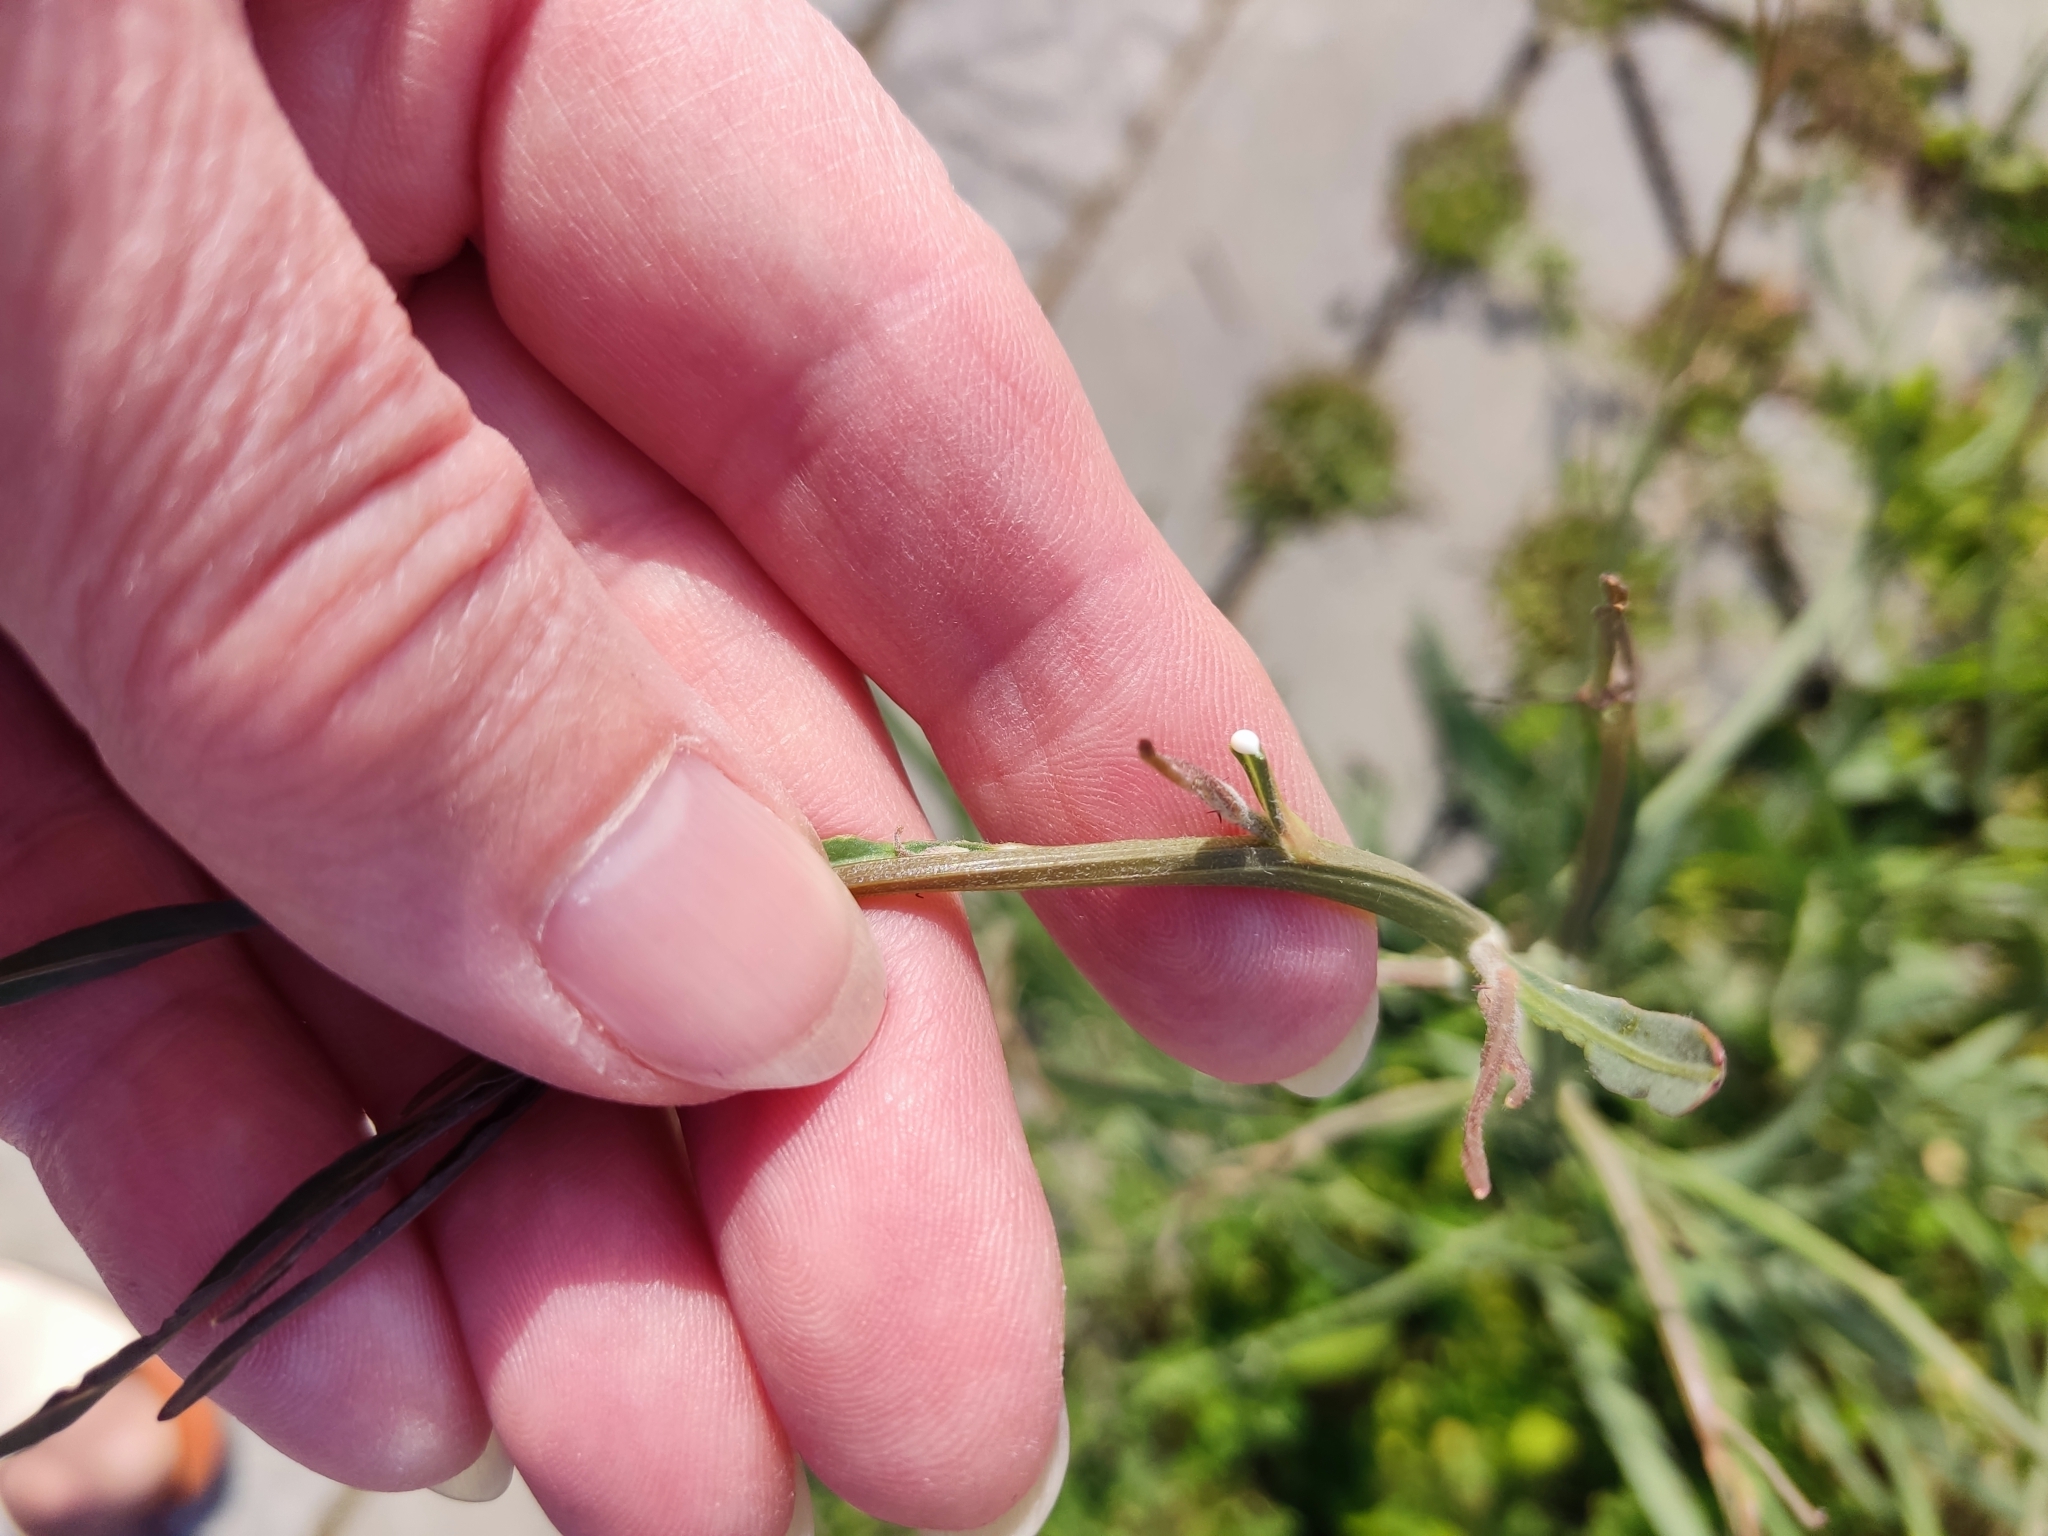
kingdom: Plantae
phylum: Tracheophyta
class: Magnoliopsida
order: Asterales
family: Asteraceae
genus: Chondrilla
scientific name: Chondrilla juncea
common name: Skeleton weed
